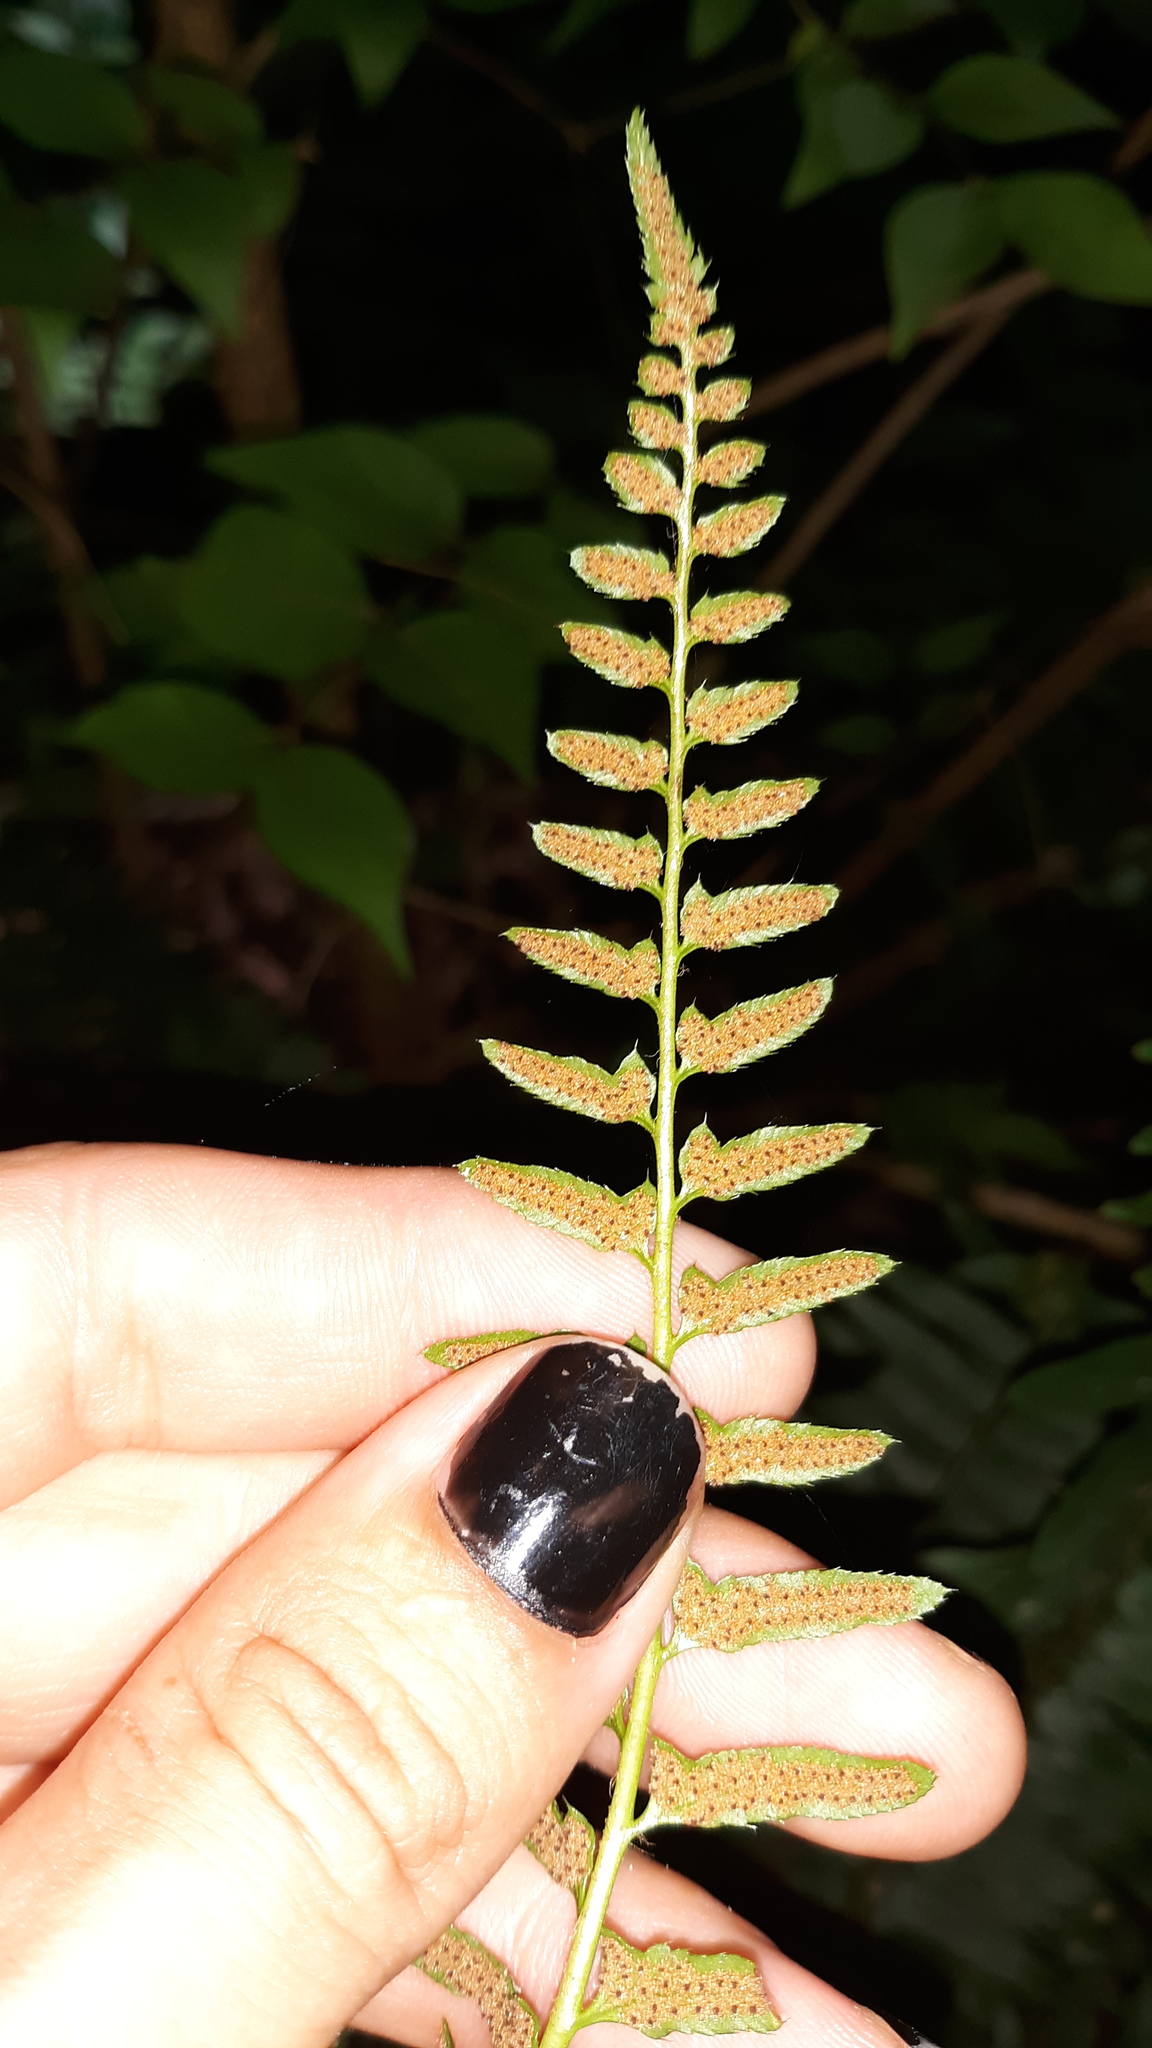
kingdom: Plantae
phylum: Tracheophyta
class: Polypodiopsida
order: Polypodiales
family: Dryopteridaceae
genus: Polystichum
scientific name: Polystichum acrostichoides
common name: Christmas fern
